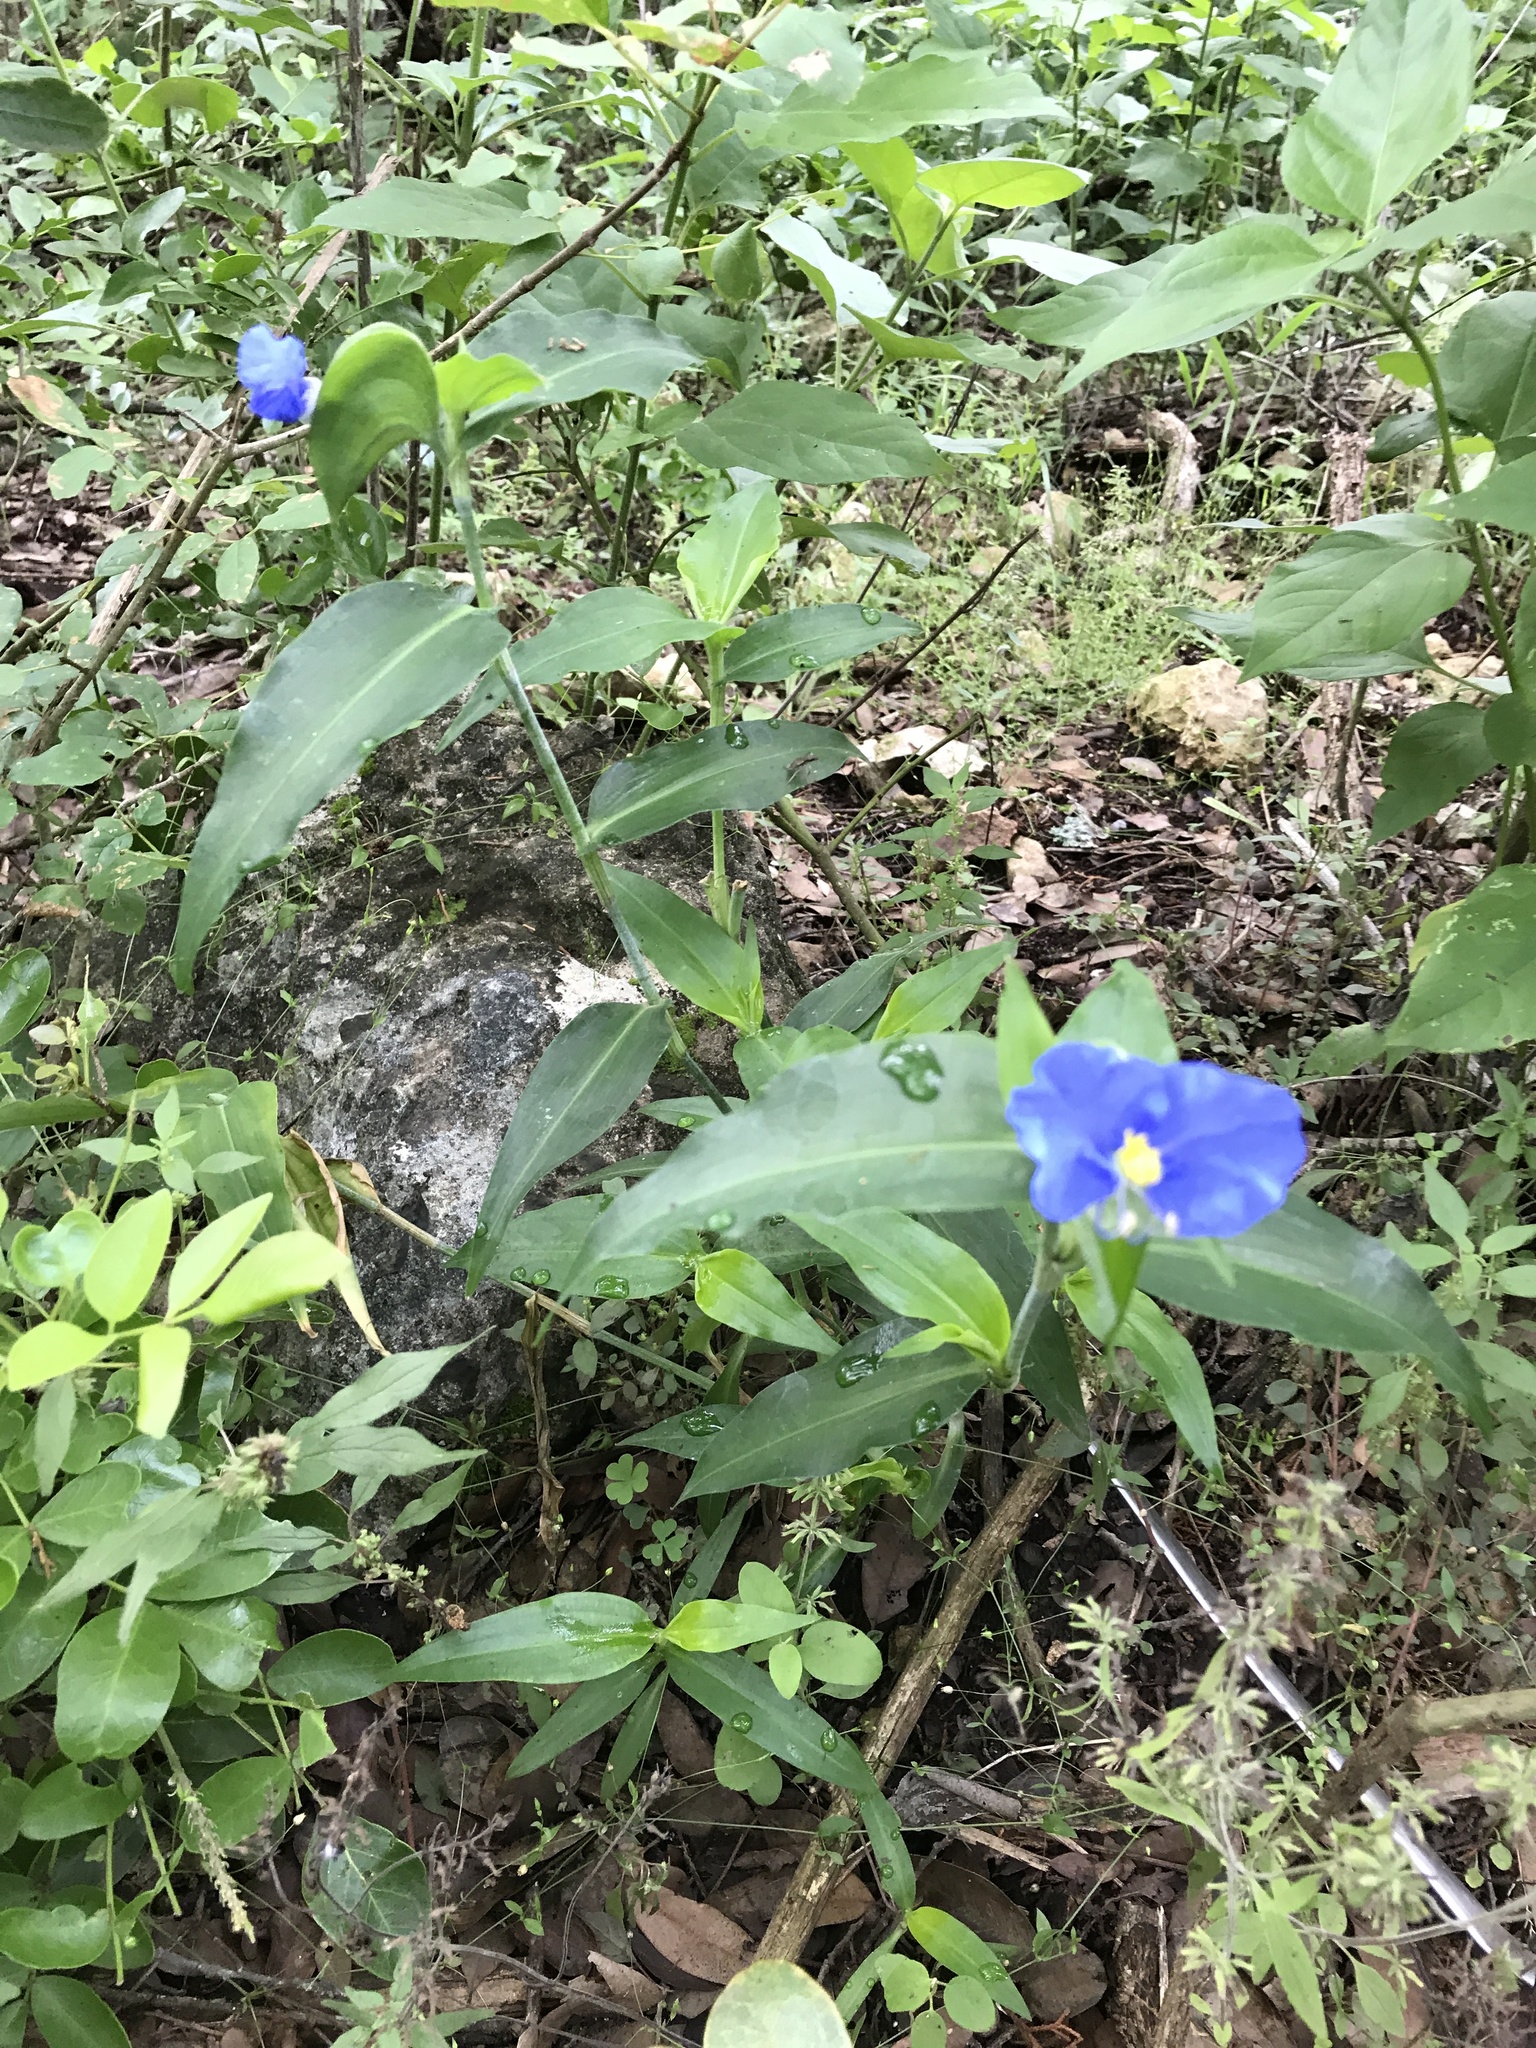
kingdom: Plantae
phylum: Tracheophyta
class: Liliopsida
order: Commelinales
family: Commelinaceae
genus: Commelina
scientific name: Commelina erecta
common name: Blousel blommetjie
